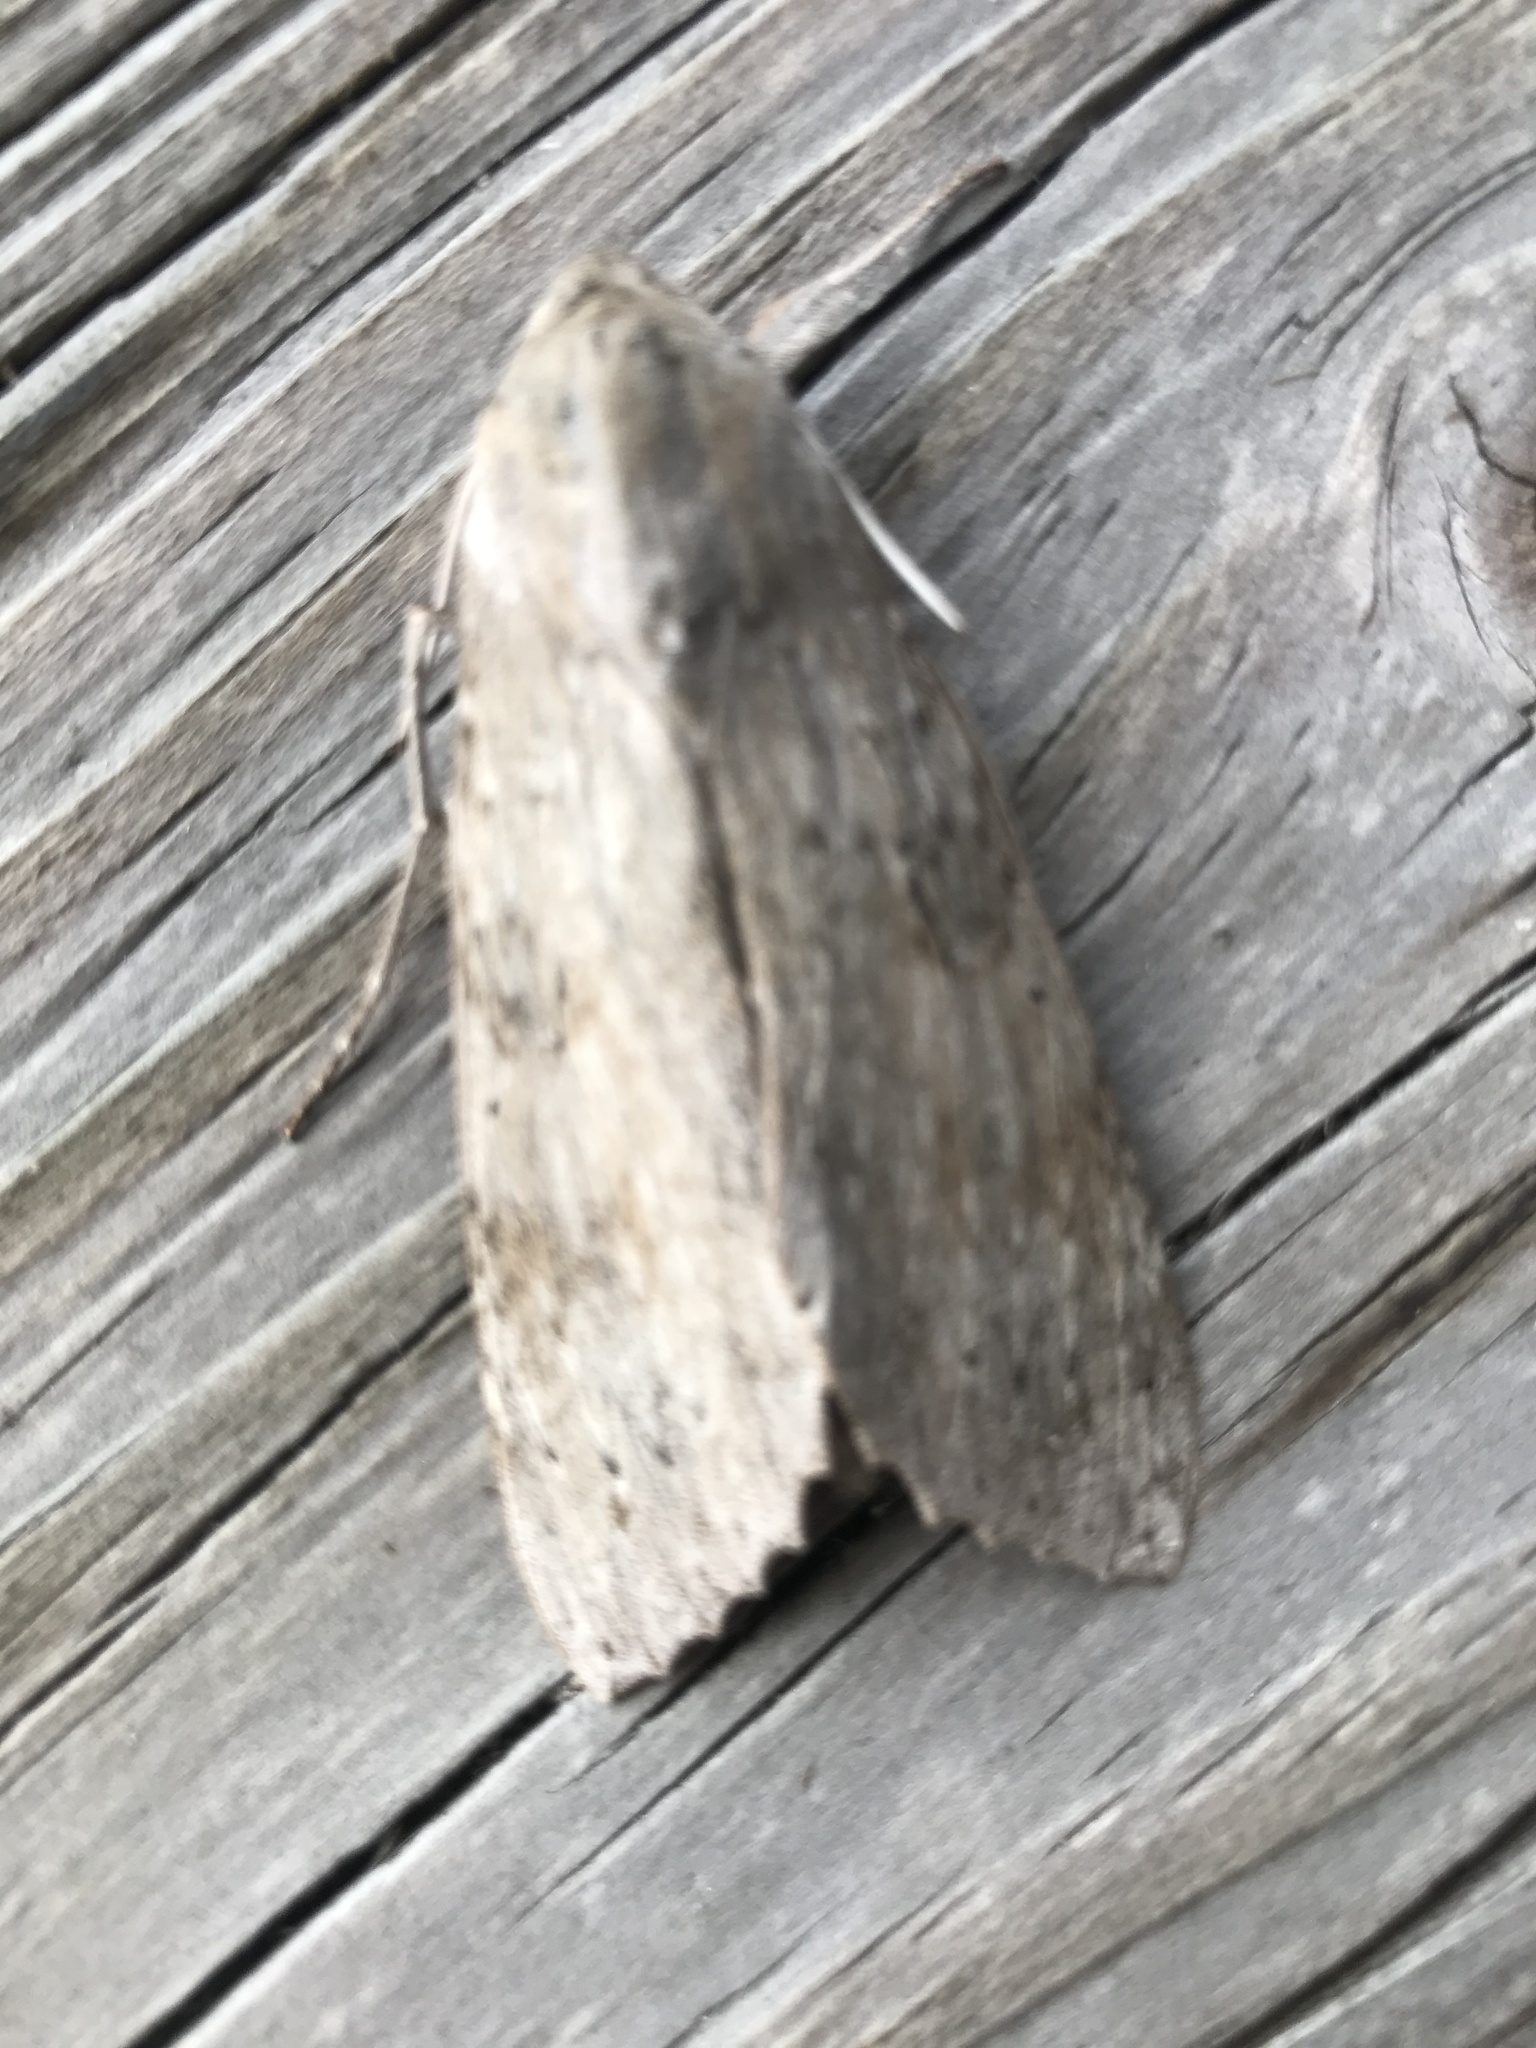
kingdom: Animalia
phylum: Arthropoda
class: Insecta
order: Lepidoptera
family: Sphingidae
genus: Erinnyis
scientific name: Erinnyis ello
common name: Ello sphinx
